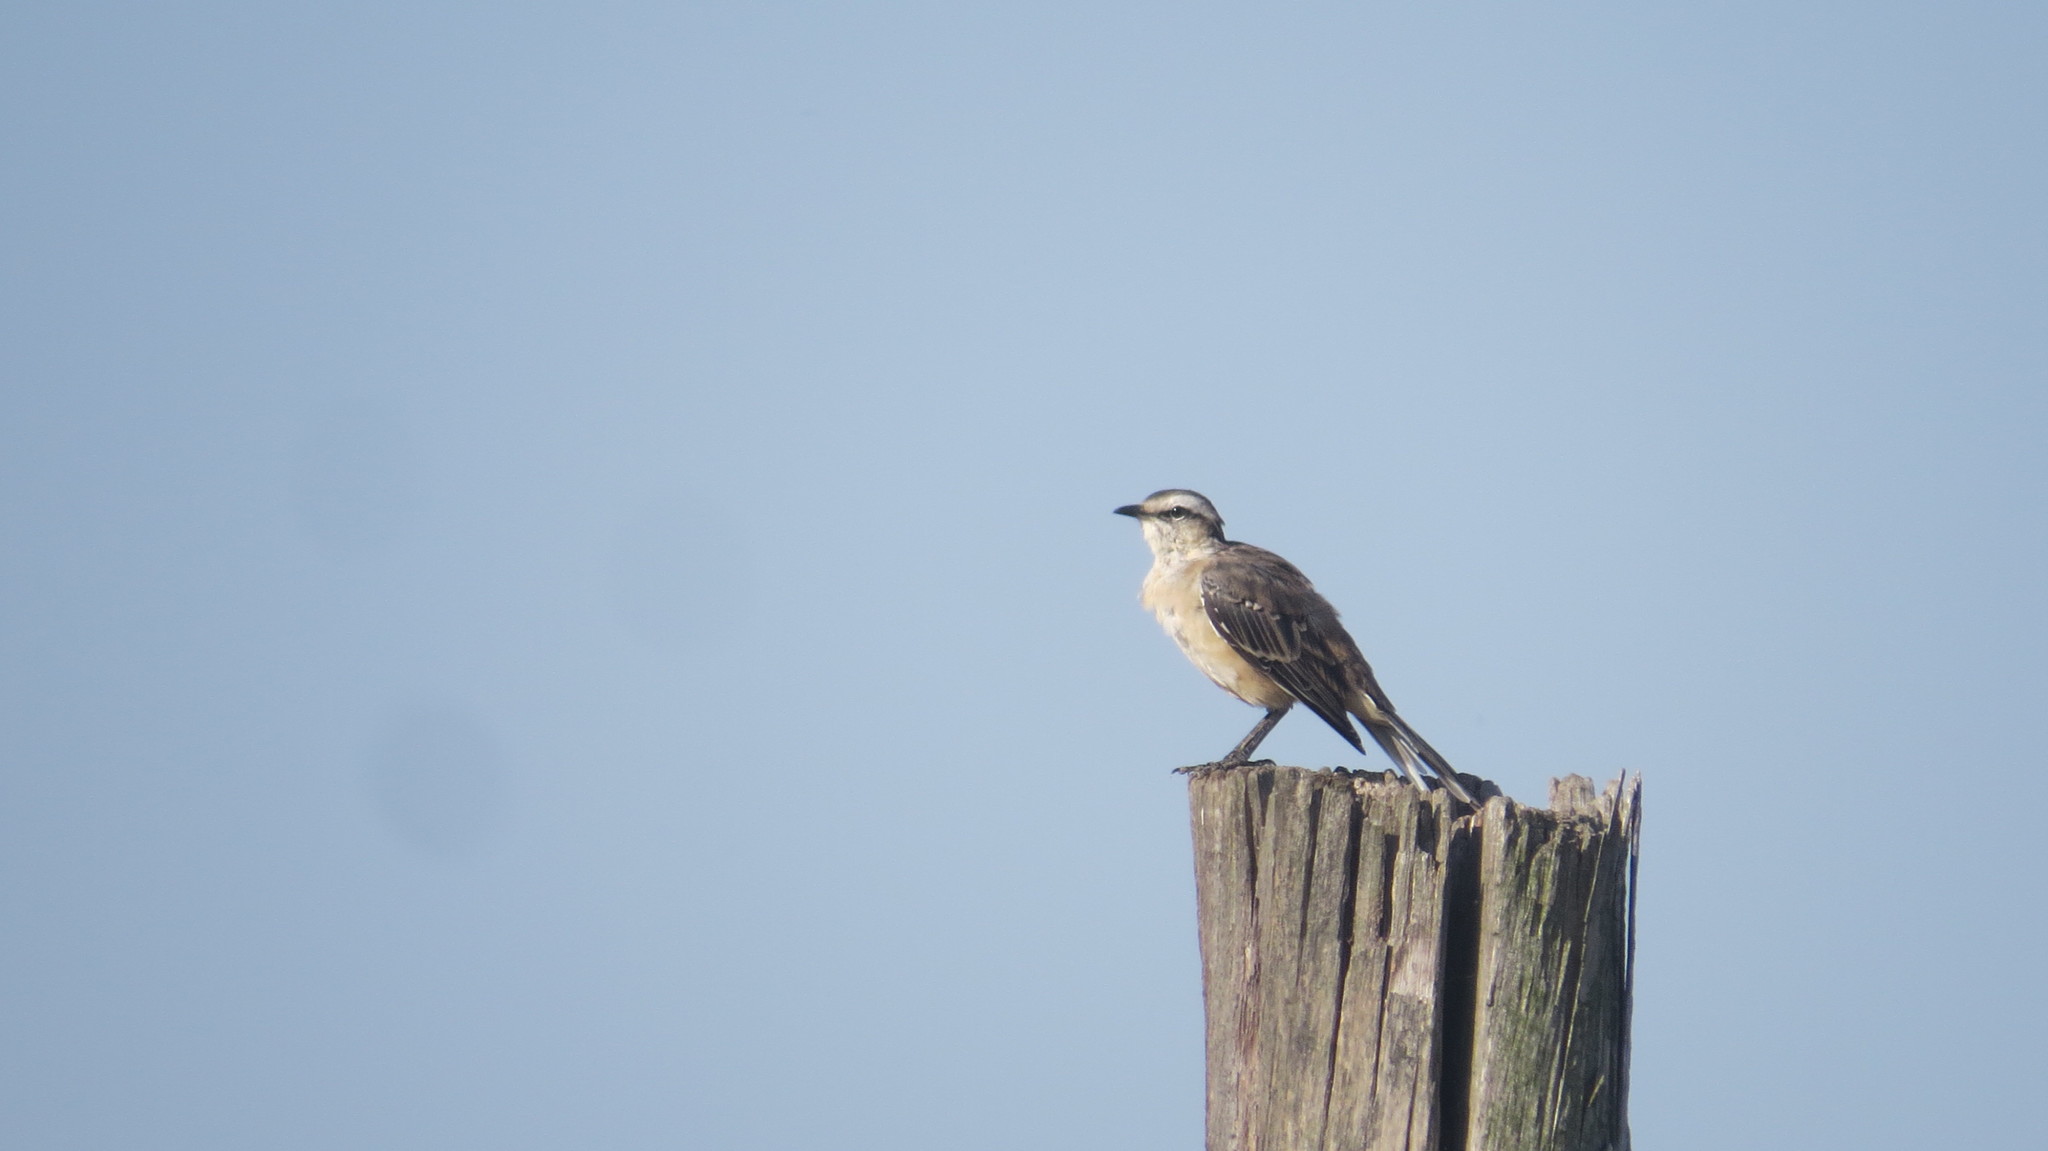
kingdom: Animalia
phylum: Chordata
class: Aves
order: Passeriformes
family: Mimidae
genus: Mimus
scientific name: Mimus saturninus
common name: Chalk-browed mockingbird
